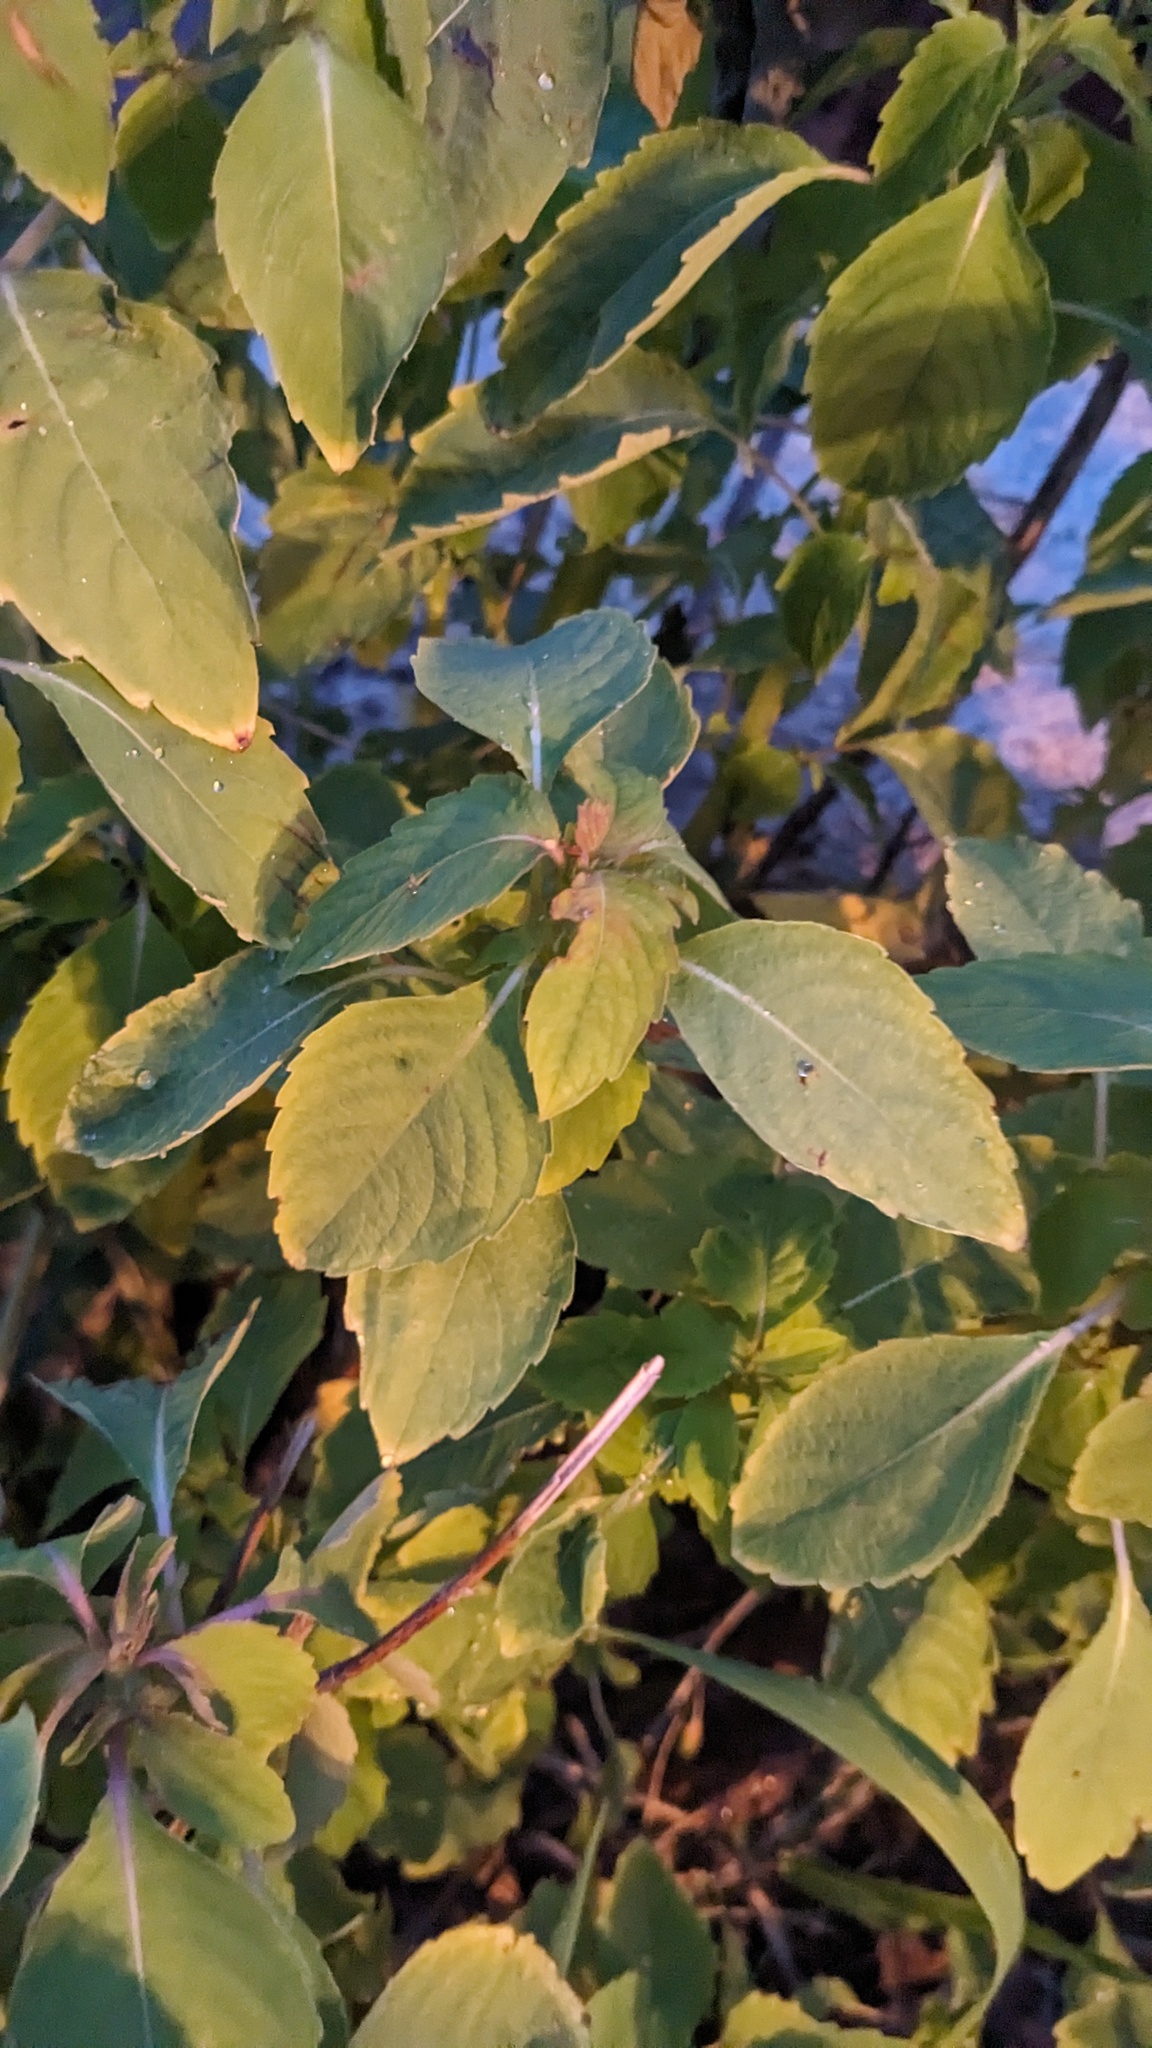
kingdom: Plantae
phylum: Tracheophyta
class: Magnoliopsida
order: Ericales
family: Balsaminaceae
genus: Impatiens
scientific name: Impatiens capensis
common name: Orange balsam
